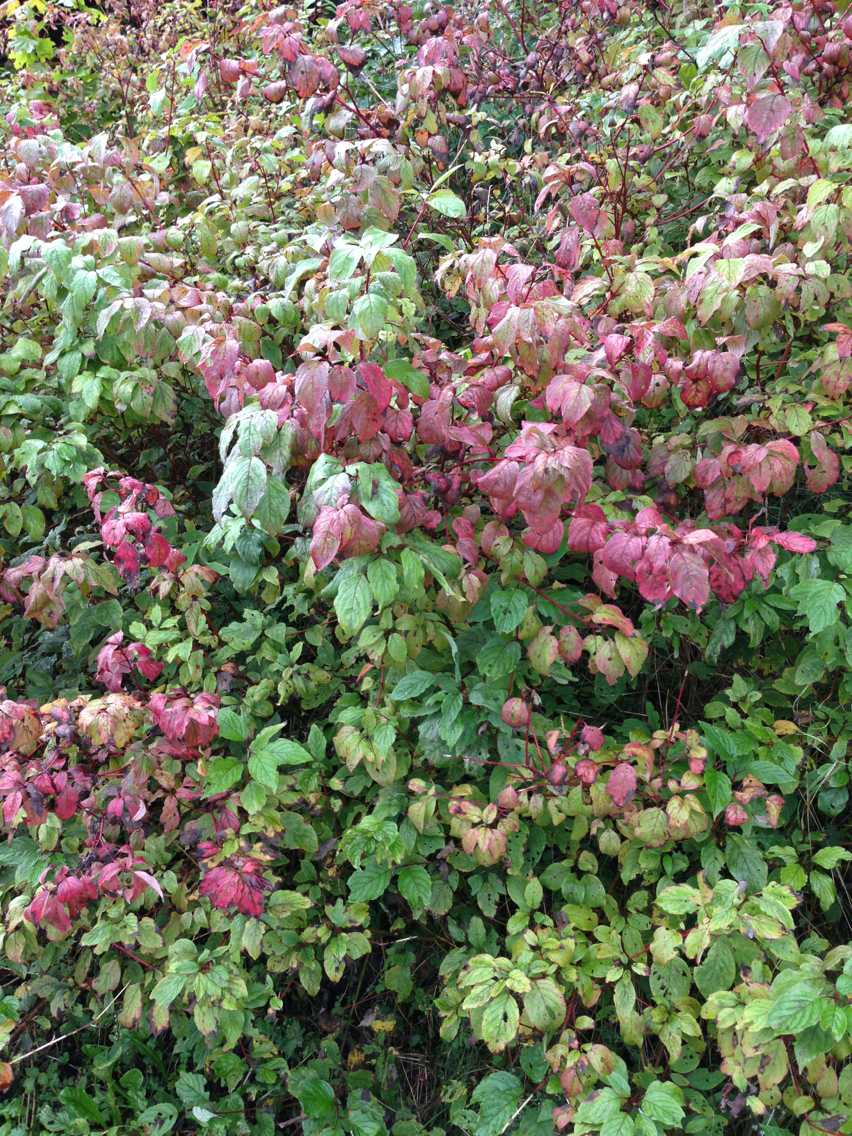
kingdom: Plantae
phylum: Tracheophyta
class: Magnoliopsida
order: Cornales
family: Cornaceae
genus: Cornus
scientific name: Cornus sericea
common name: Red-osier dogwood
